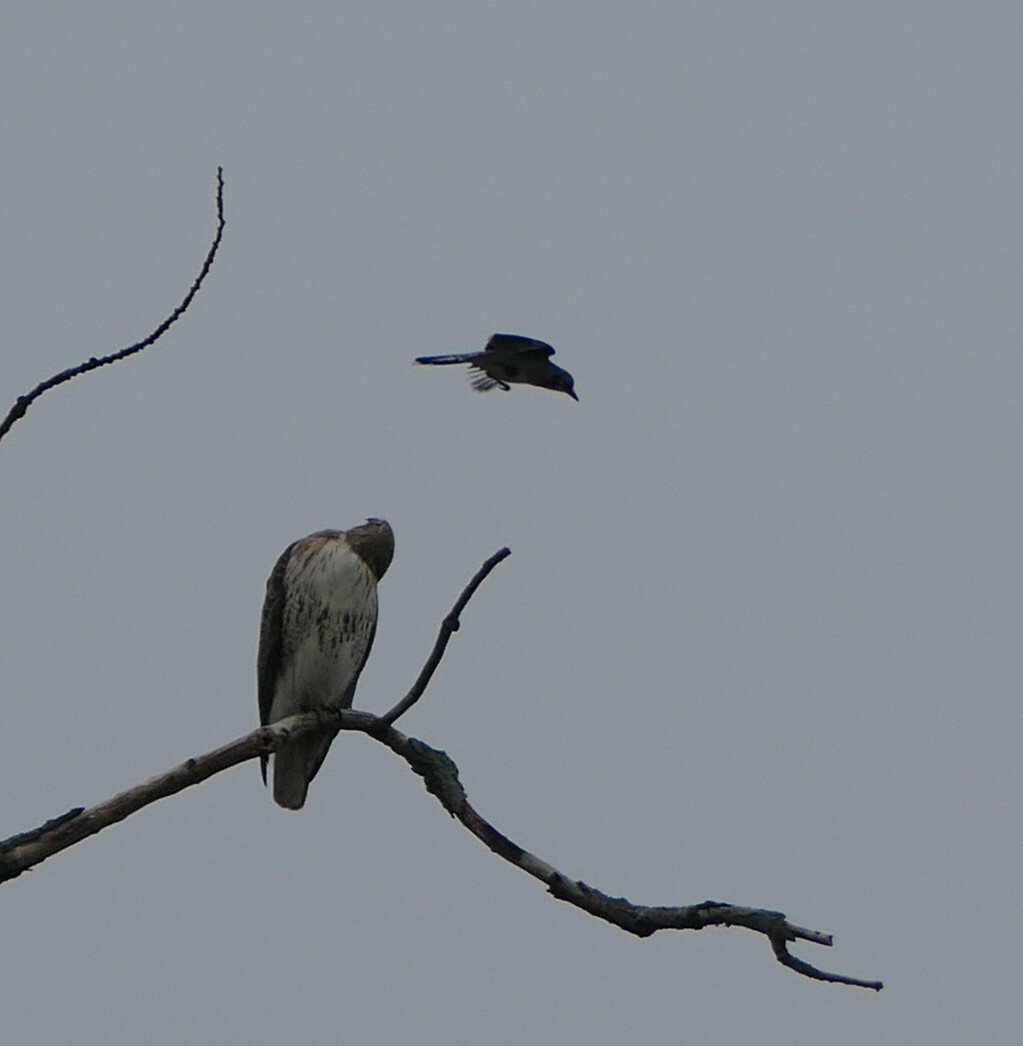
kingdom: Animalia
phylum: Chordata
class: Aves
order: Accipitriformes
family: Accipitridae
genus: Buteo
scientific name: Buteo jamaicensis
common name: Red-tailed hawk
